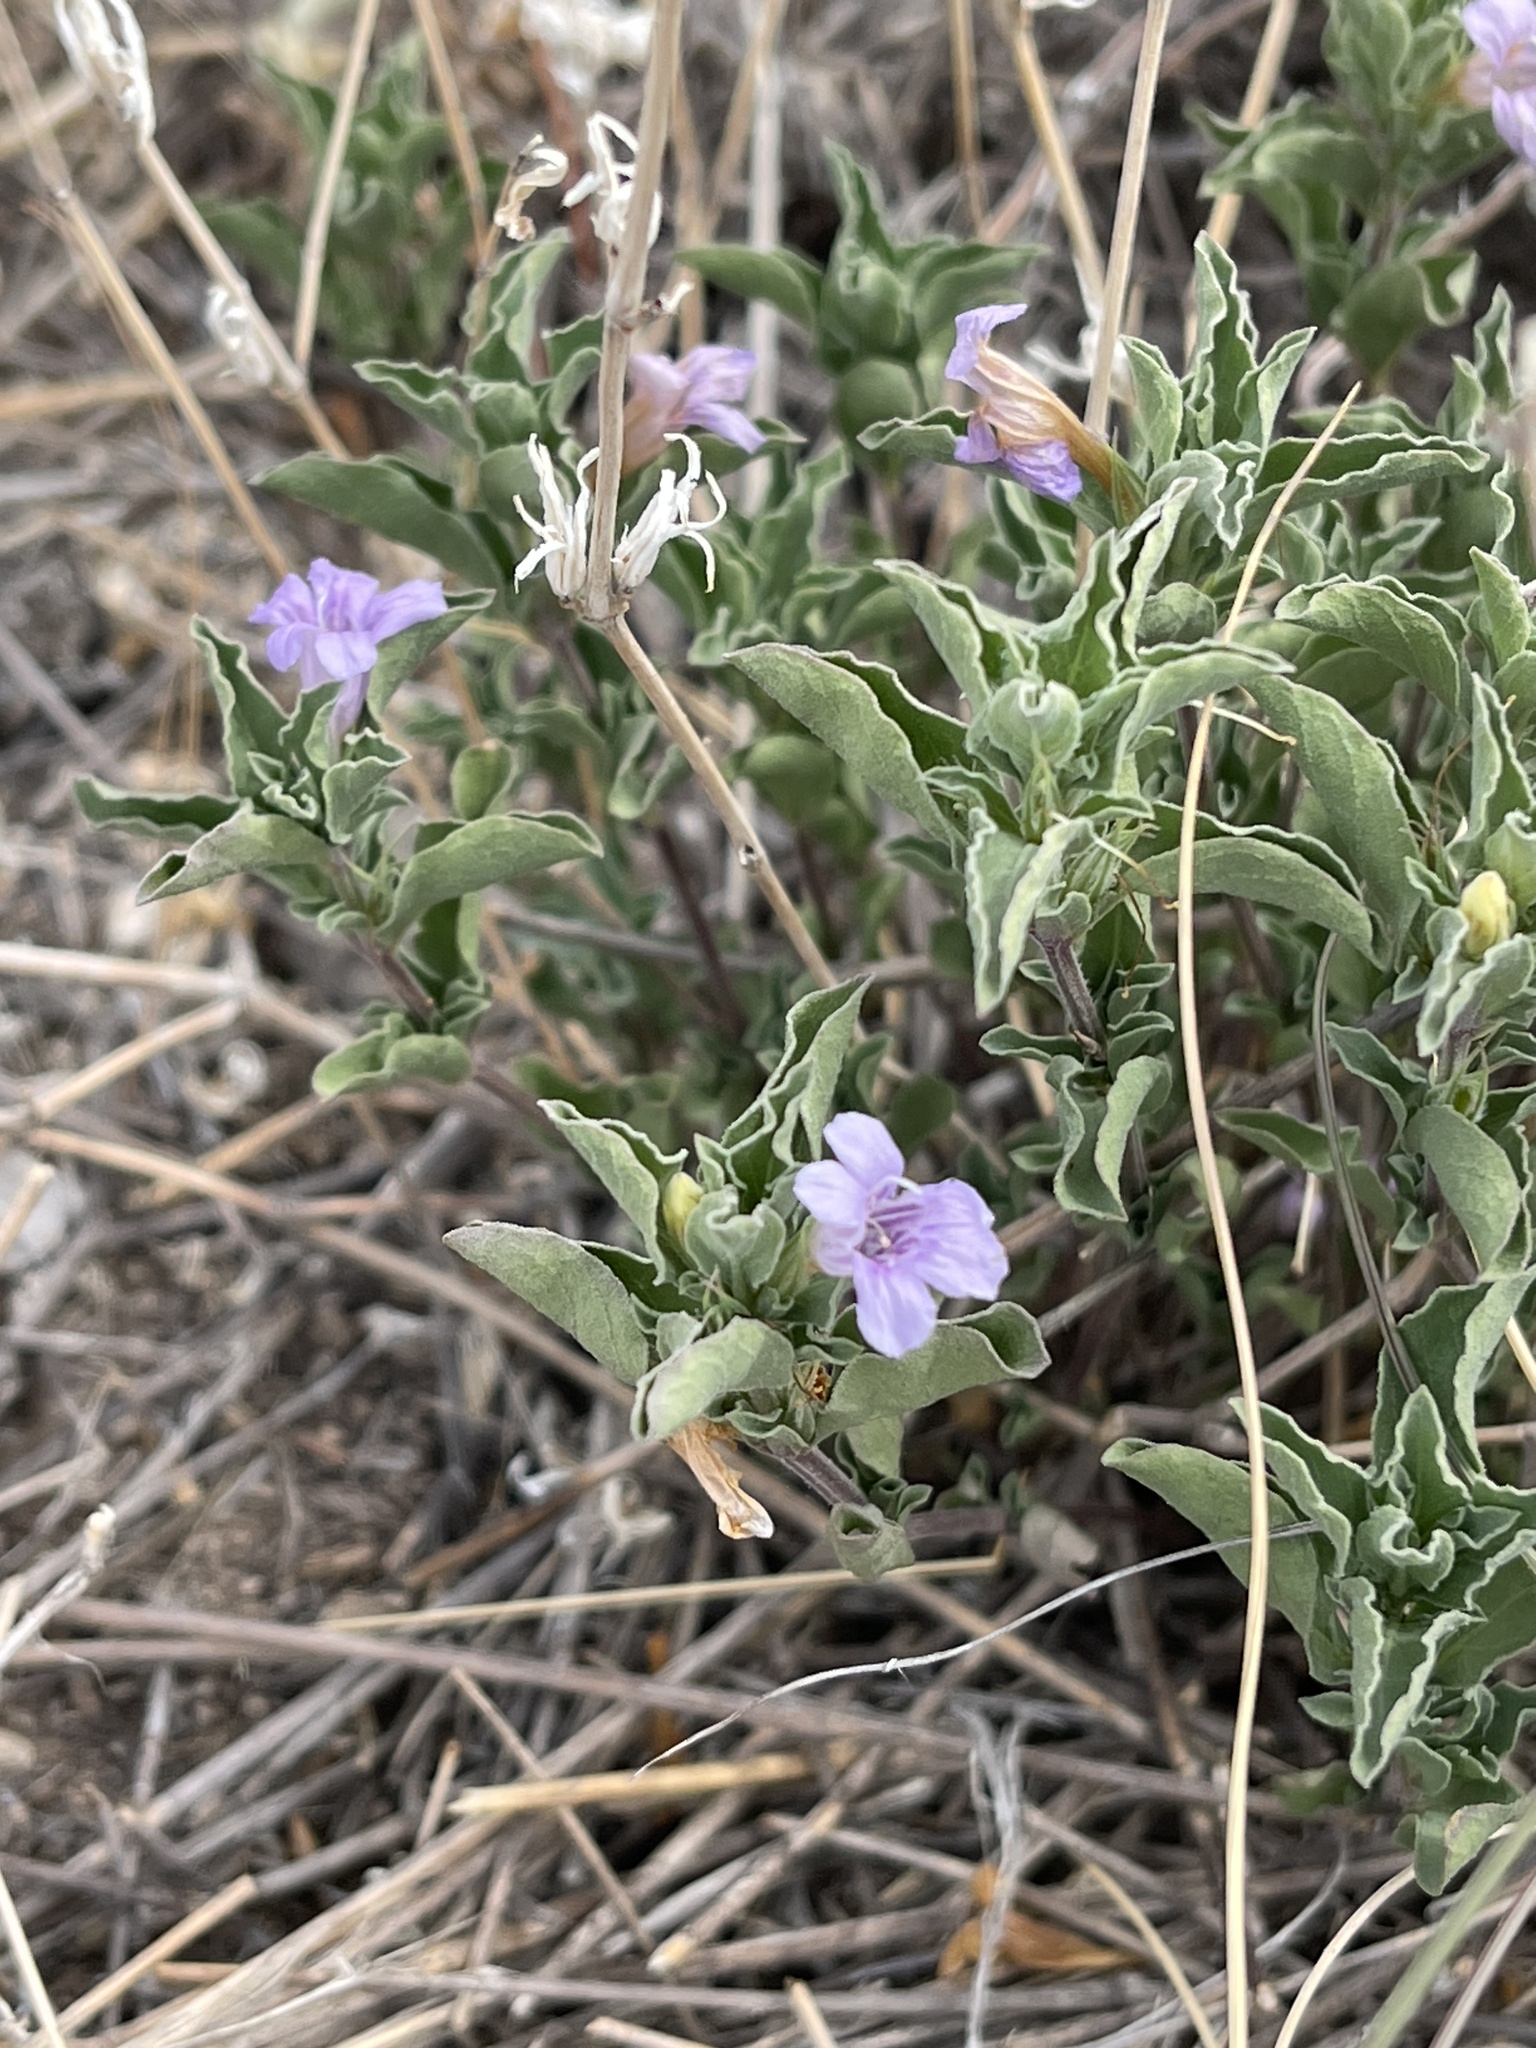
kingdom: Plantae
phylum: Tracheophyta
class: Magnoliopsida
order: Lamiales
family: Acanthaceae
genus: Dyschoriste
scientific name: Dyschoriste schiedeana
